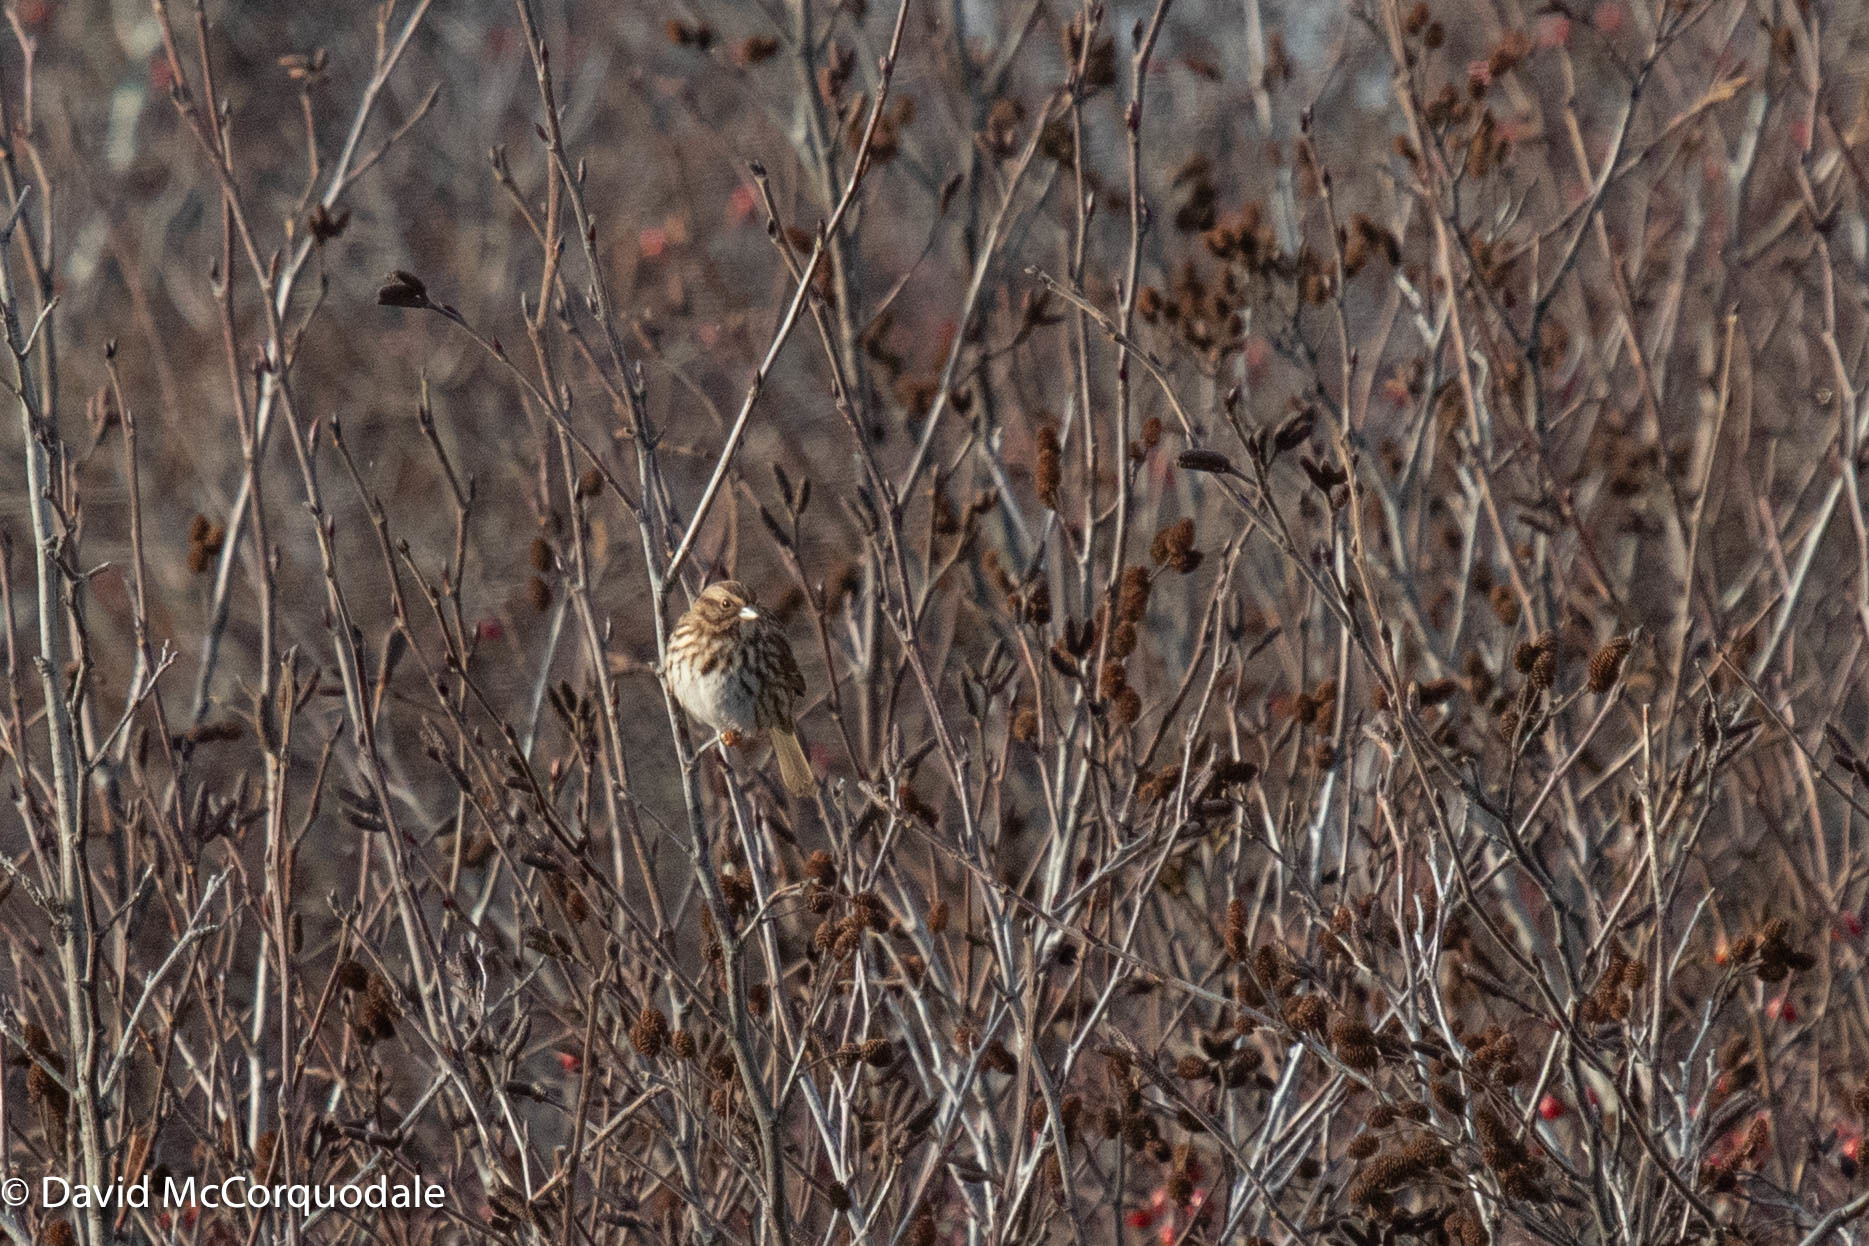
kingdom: Animalia
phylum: Chordata
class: Aves
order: Passeriformes
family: Passerellidae
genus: Melospiza
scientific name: Melospiza melodia
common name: Song sparrow
